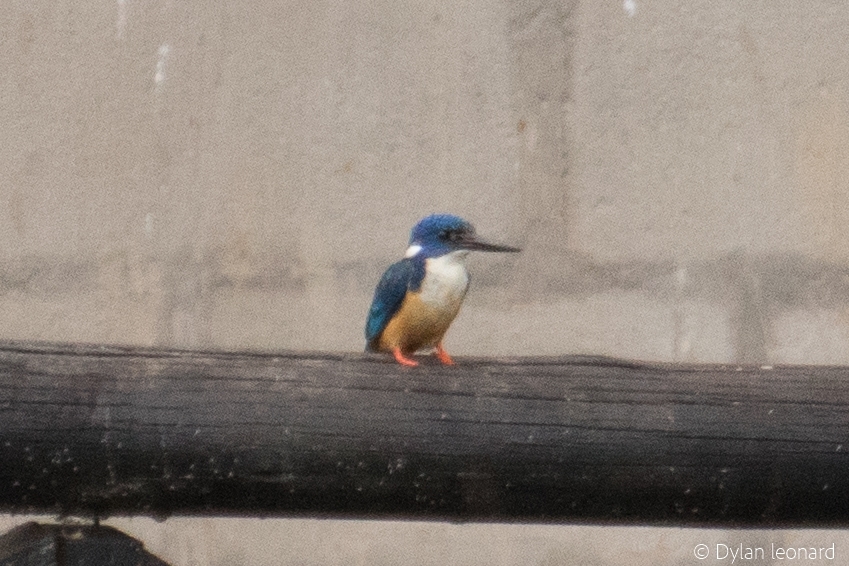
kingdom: Animalia
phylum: Chordata
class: Aves
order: Coraciiformes
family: Alcedinidae
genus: Alcedo
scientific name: Alcedo semitorquata
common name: Half-collared kingfisher
